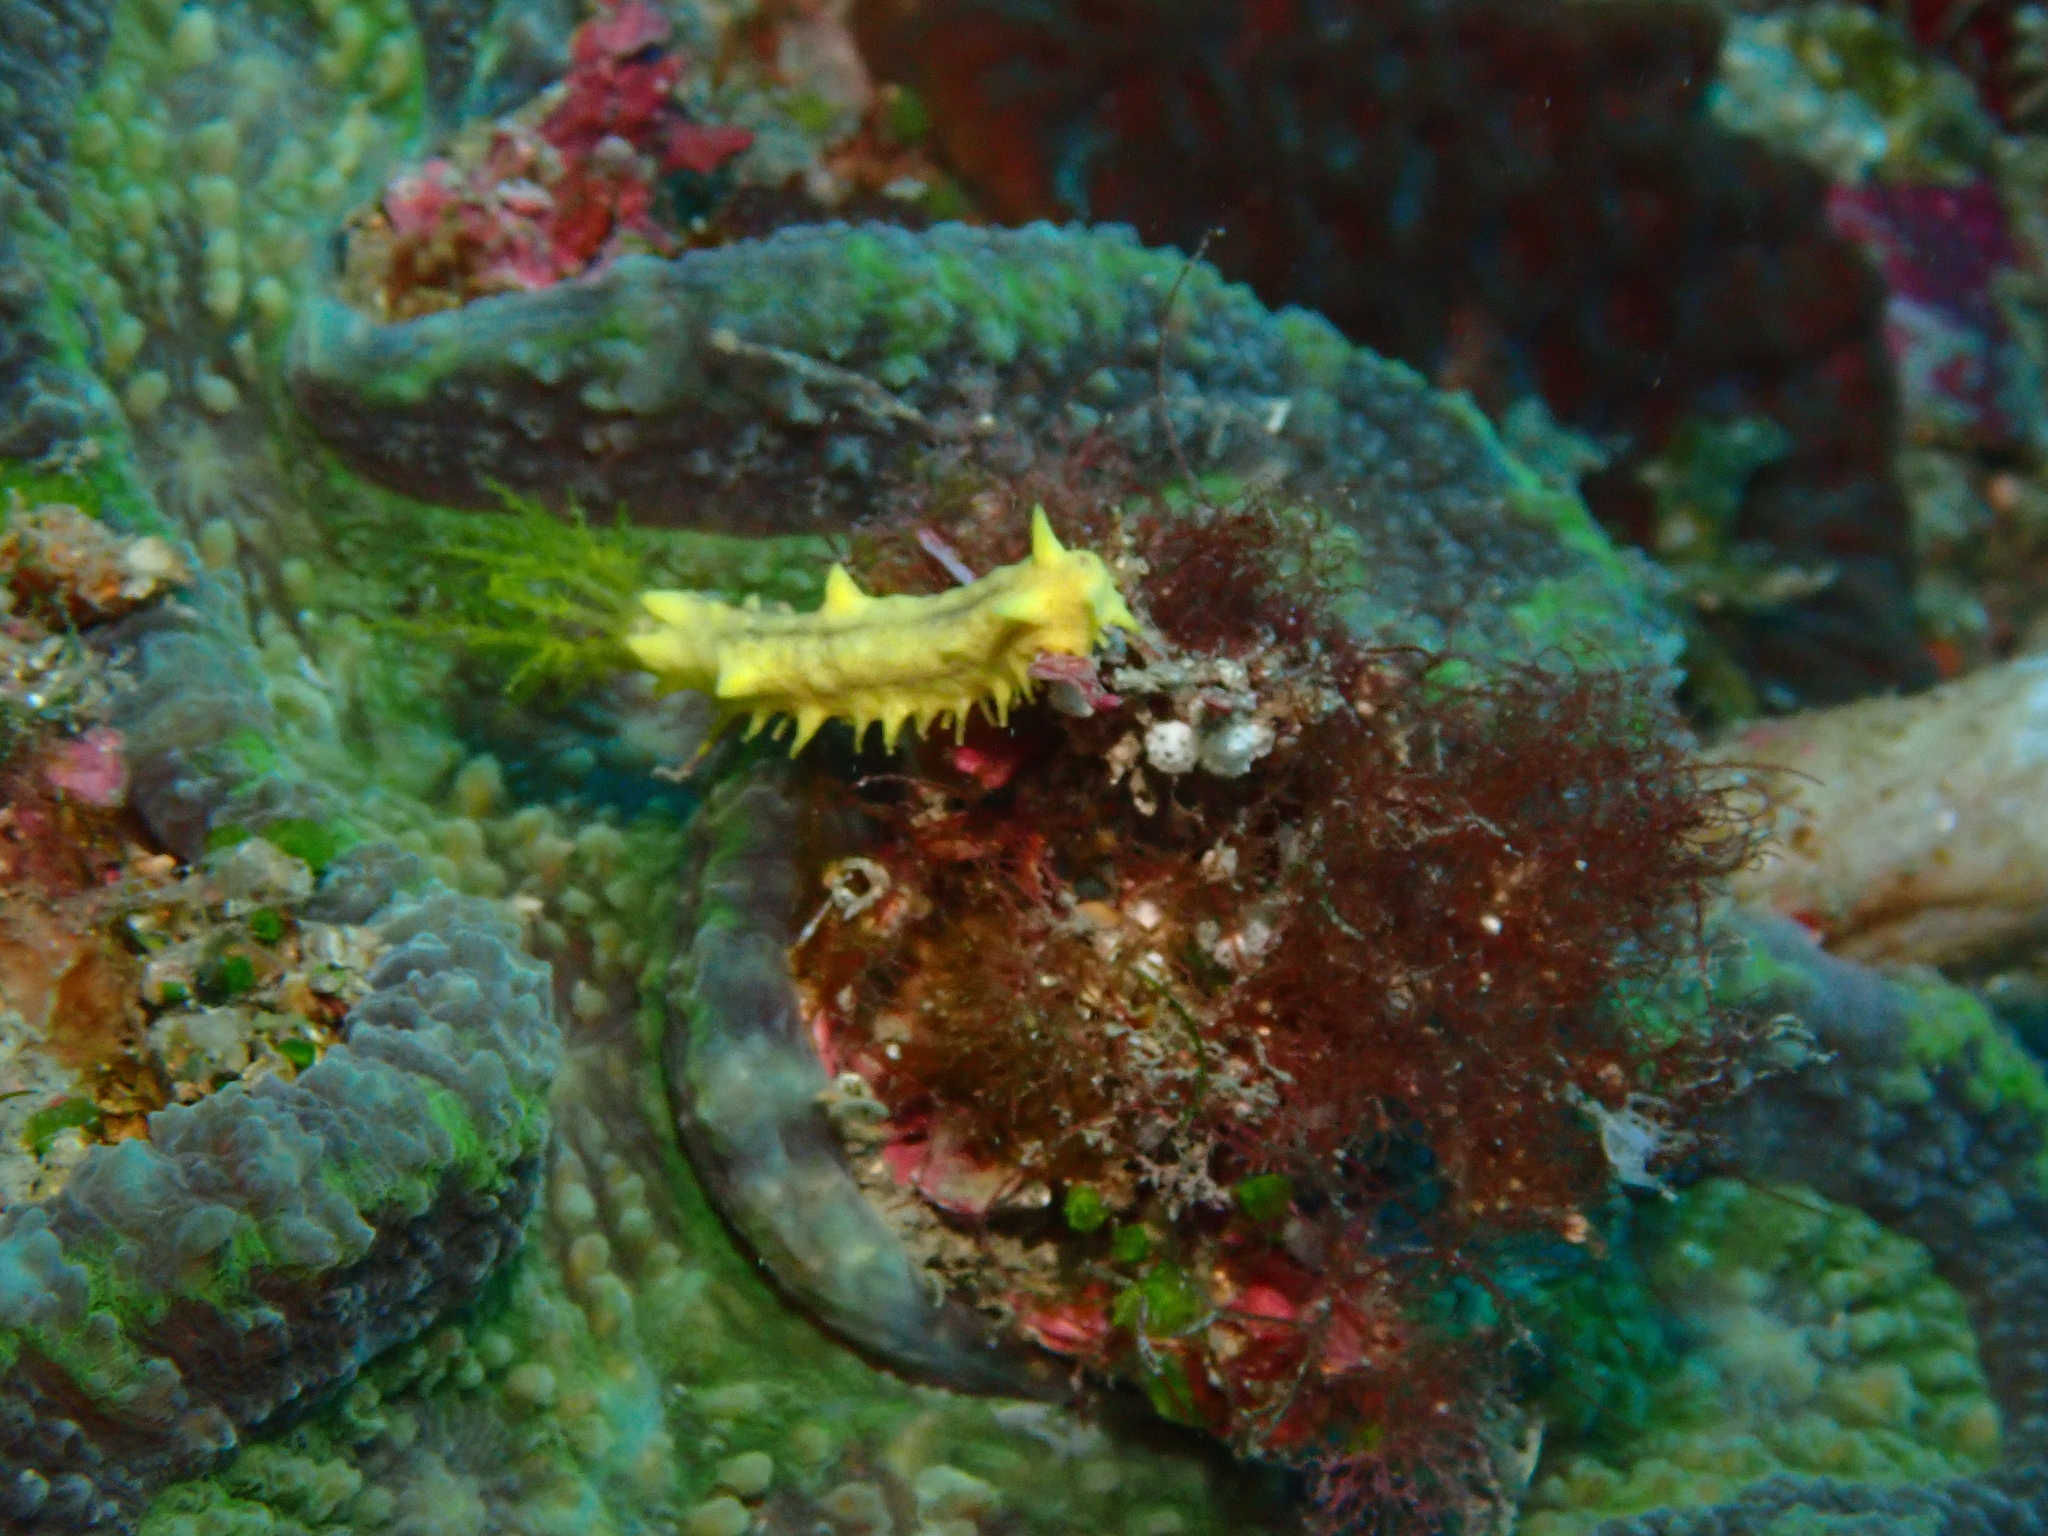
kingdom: Animalia
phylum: Echinodermata
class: Holothuroidea
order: Dendrochirotida
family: Cucumariidae
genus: Colochirus
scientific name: Colochirus robustus
